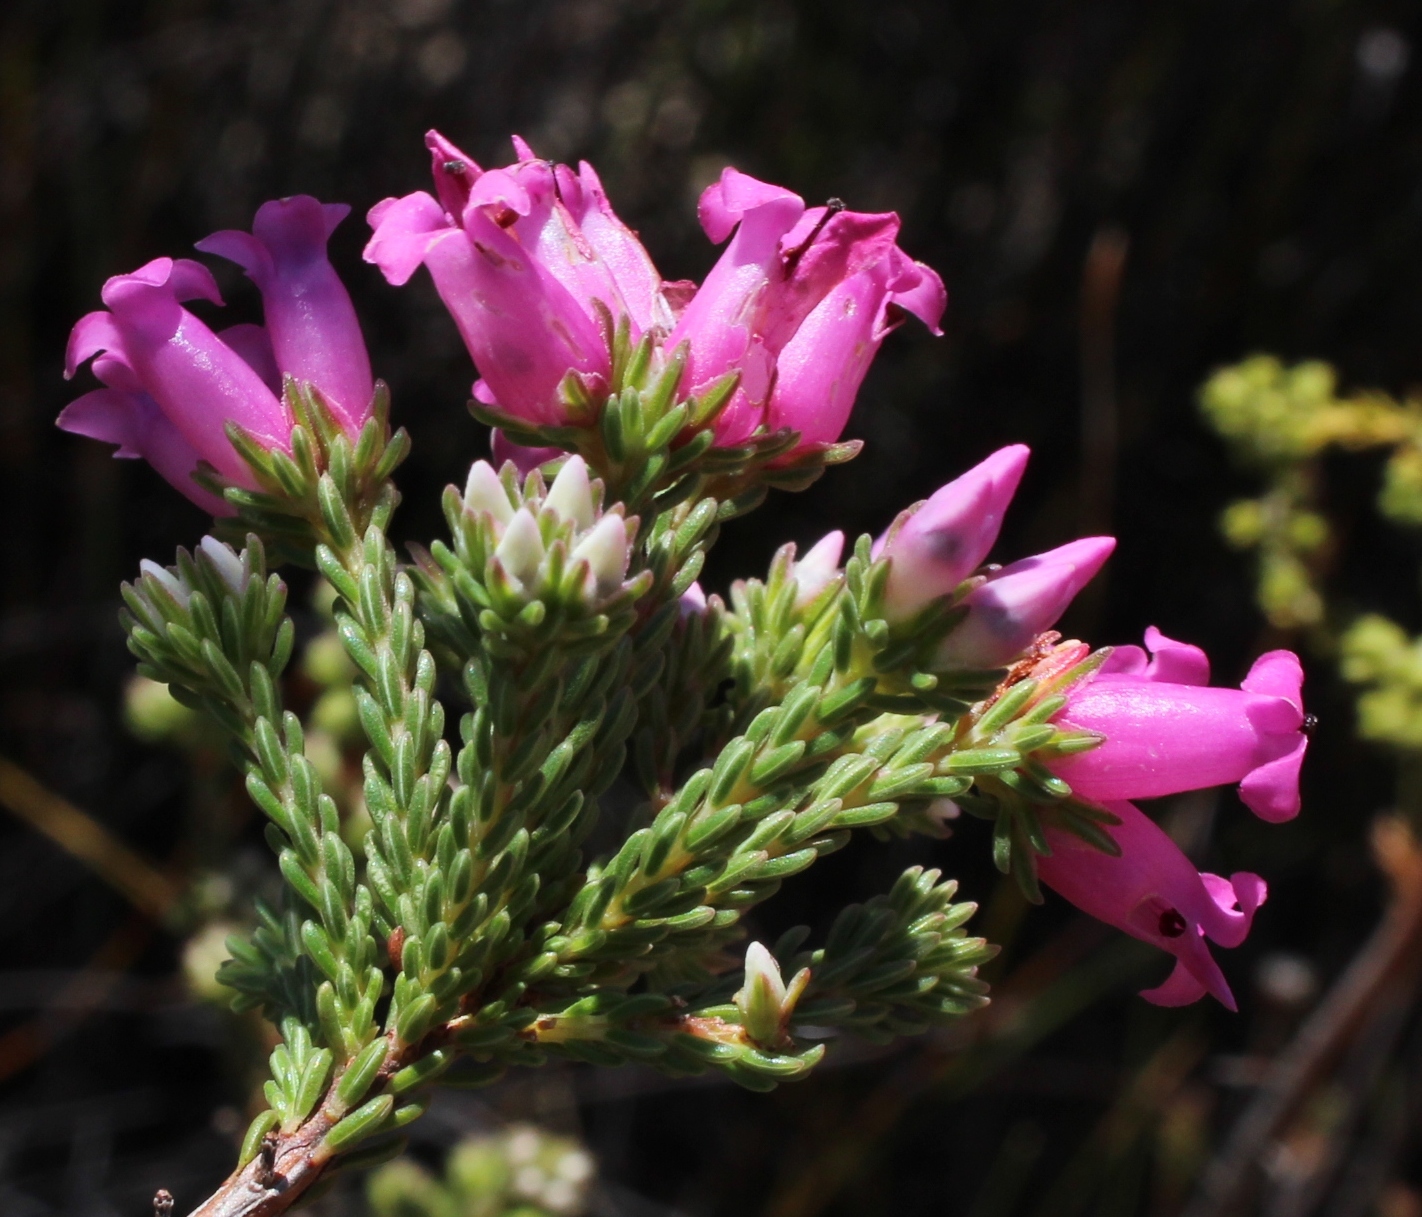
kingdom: Plantae
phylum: Tracheophyta
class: Magnoliopsida
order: Ericales
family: Ericaceae
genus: Erica
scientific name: Erica daphniflora
